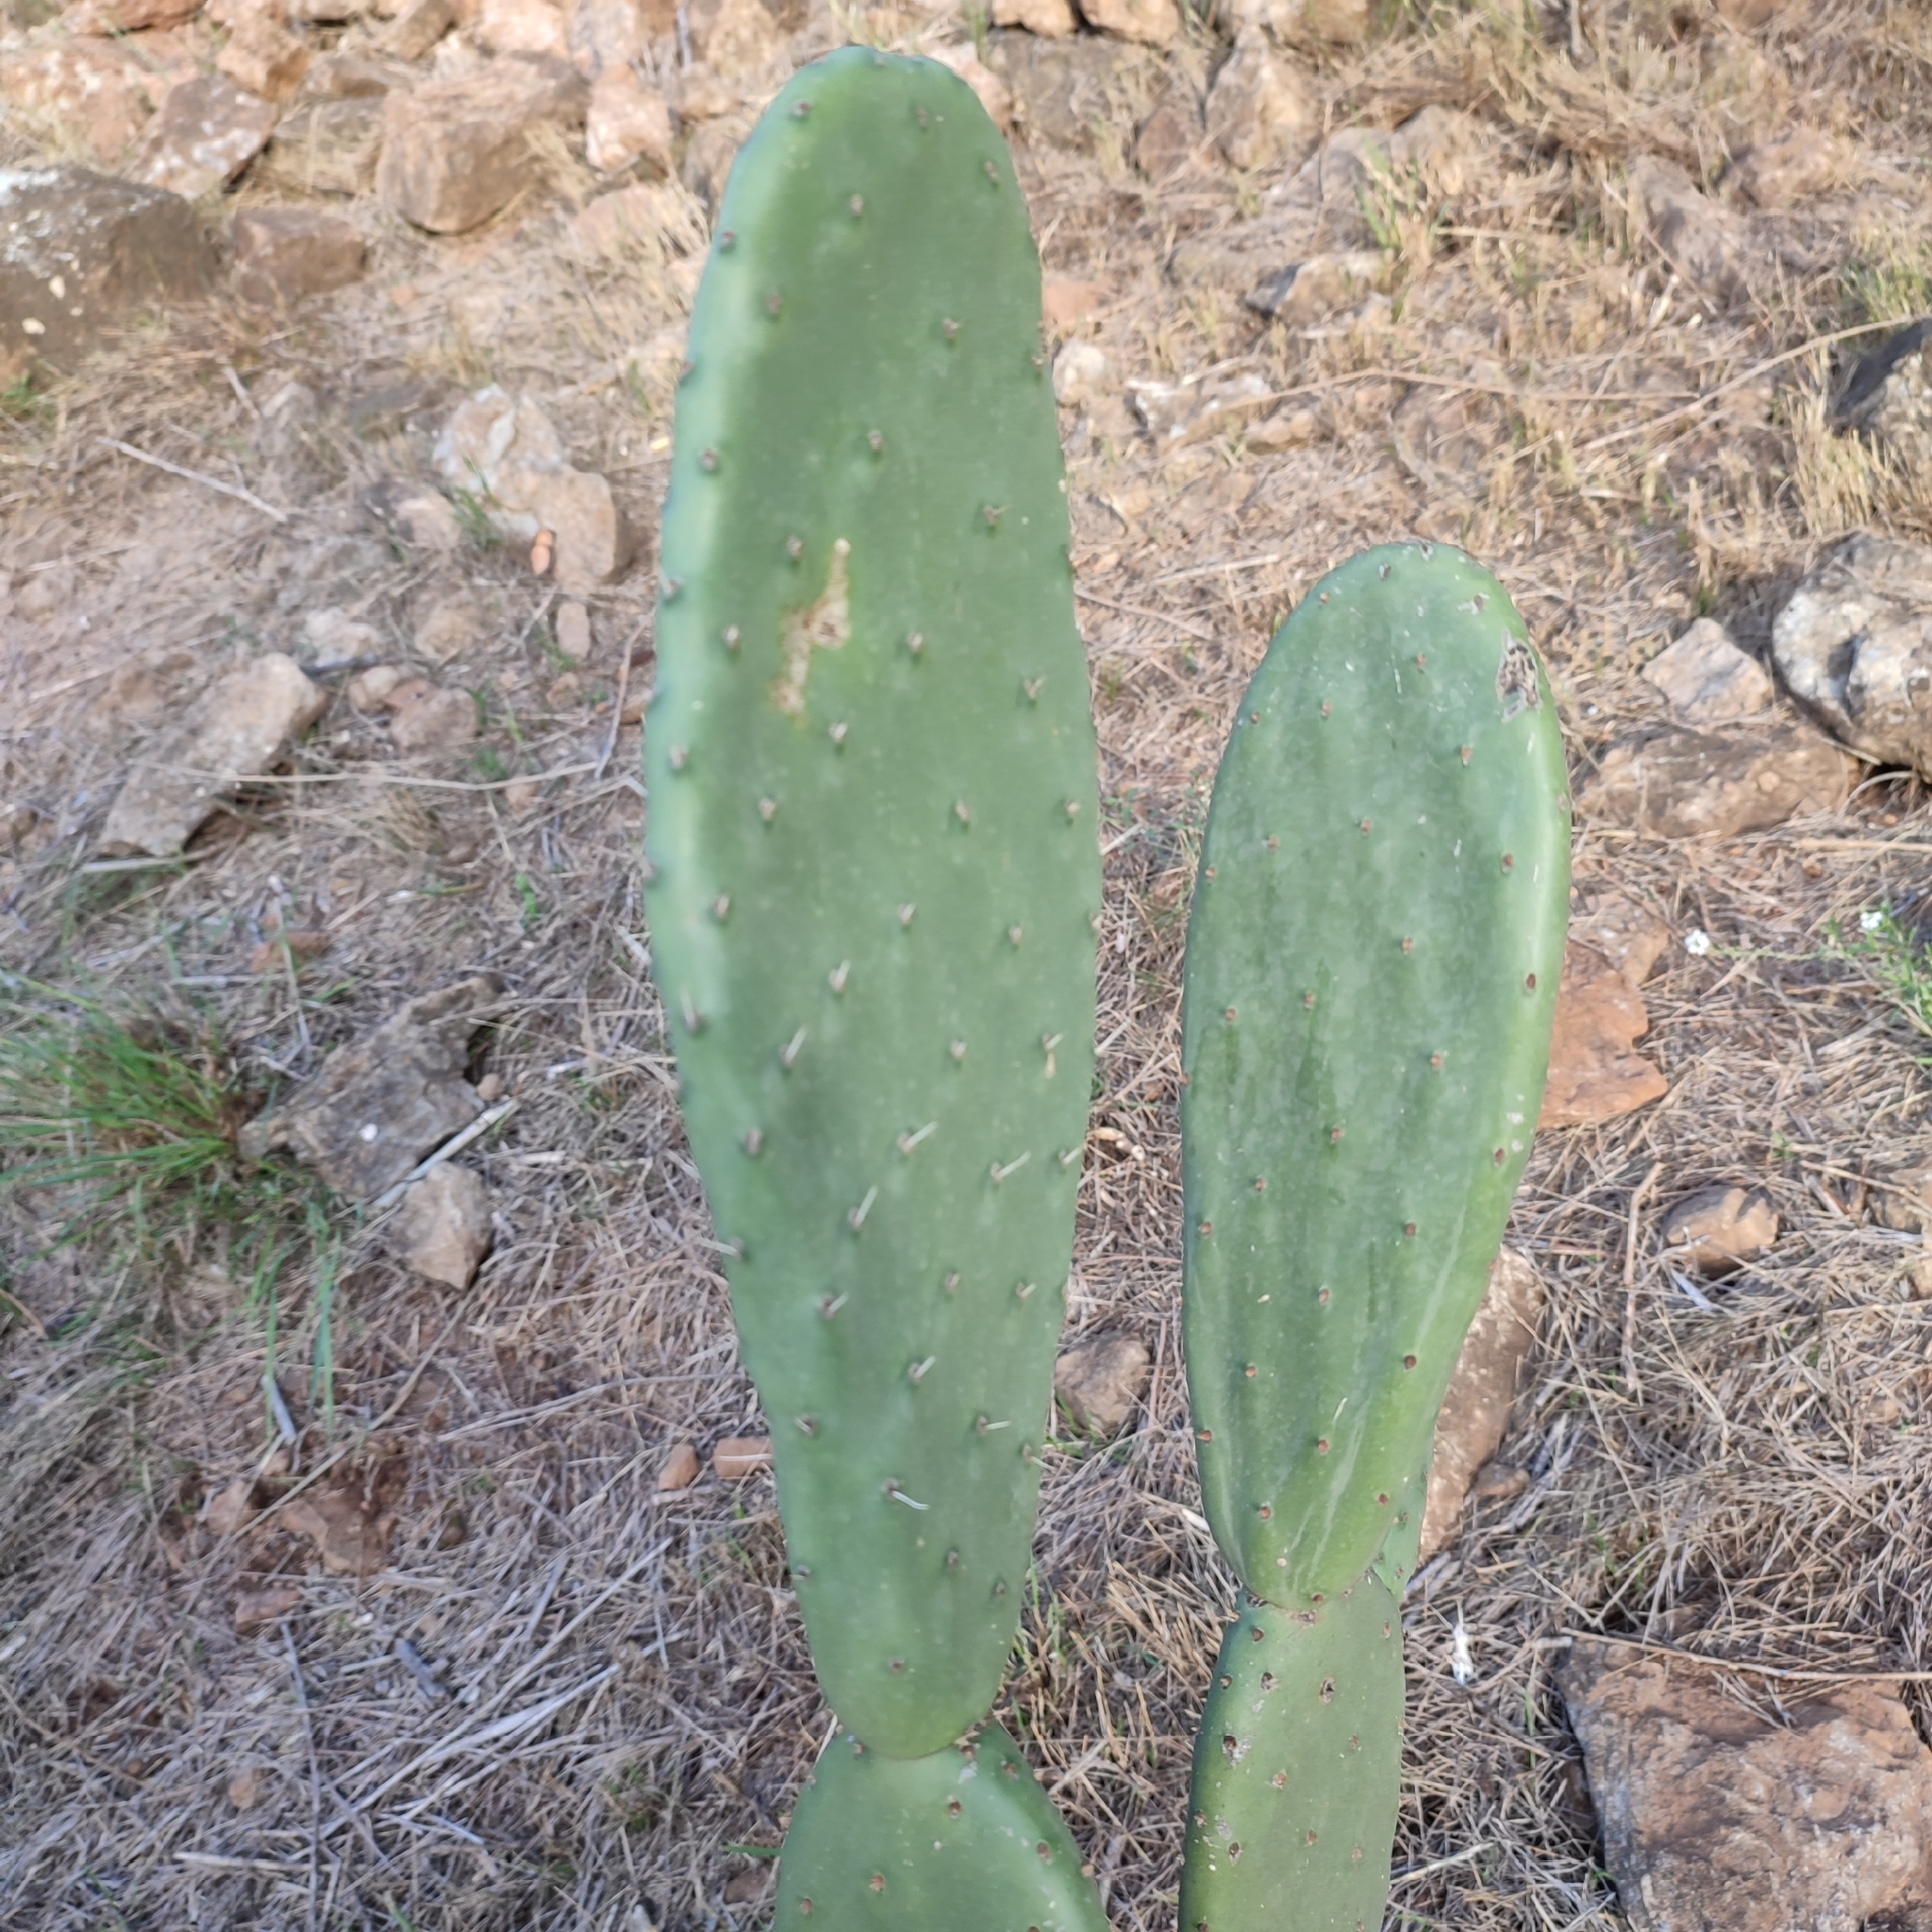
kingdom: Plantae
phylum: Tracheophyta
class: Magnoliopsida
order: Caryophyllales
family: Cactaceae
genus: Opuntia
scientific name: Opuntia ficus-indica
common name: Barbary fig
